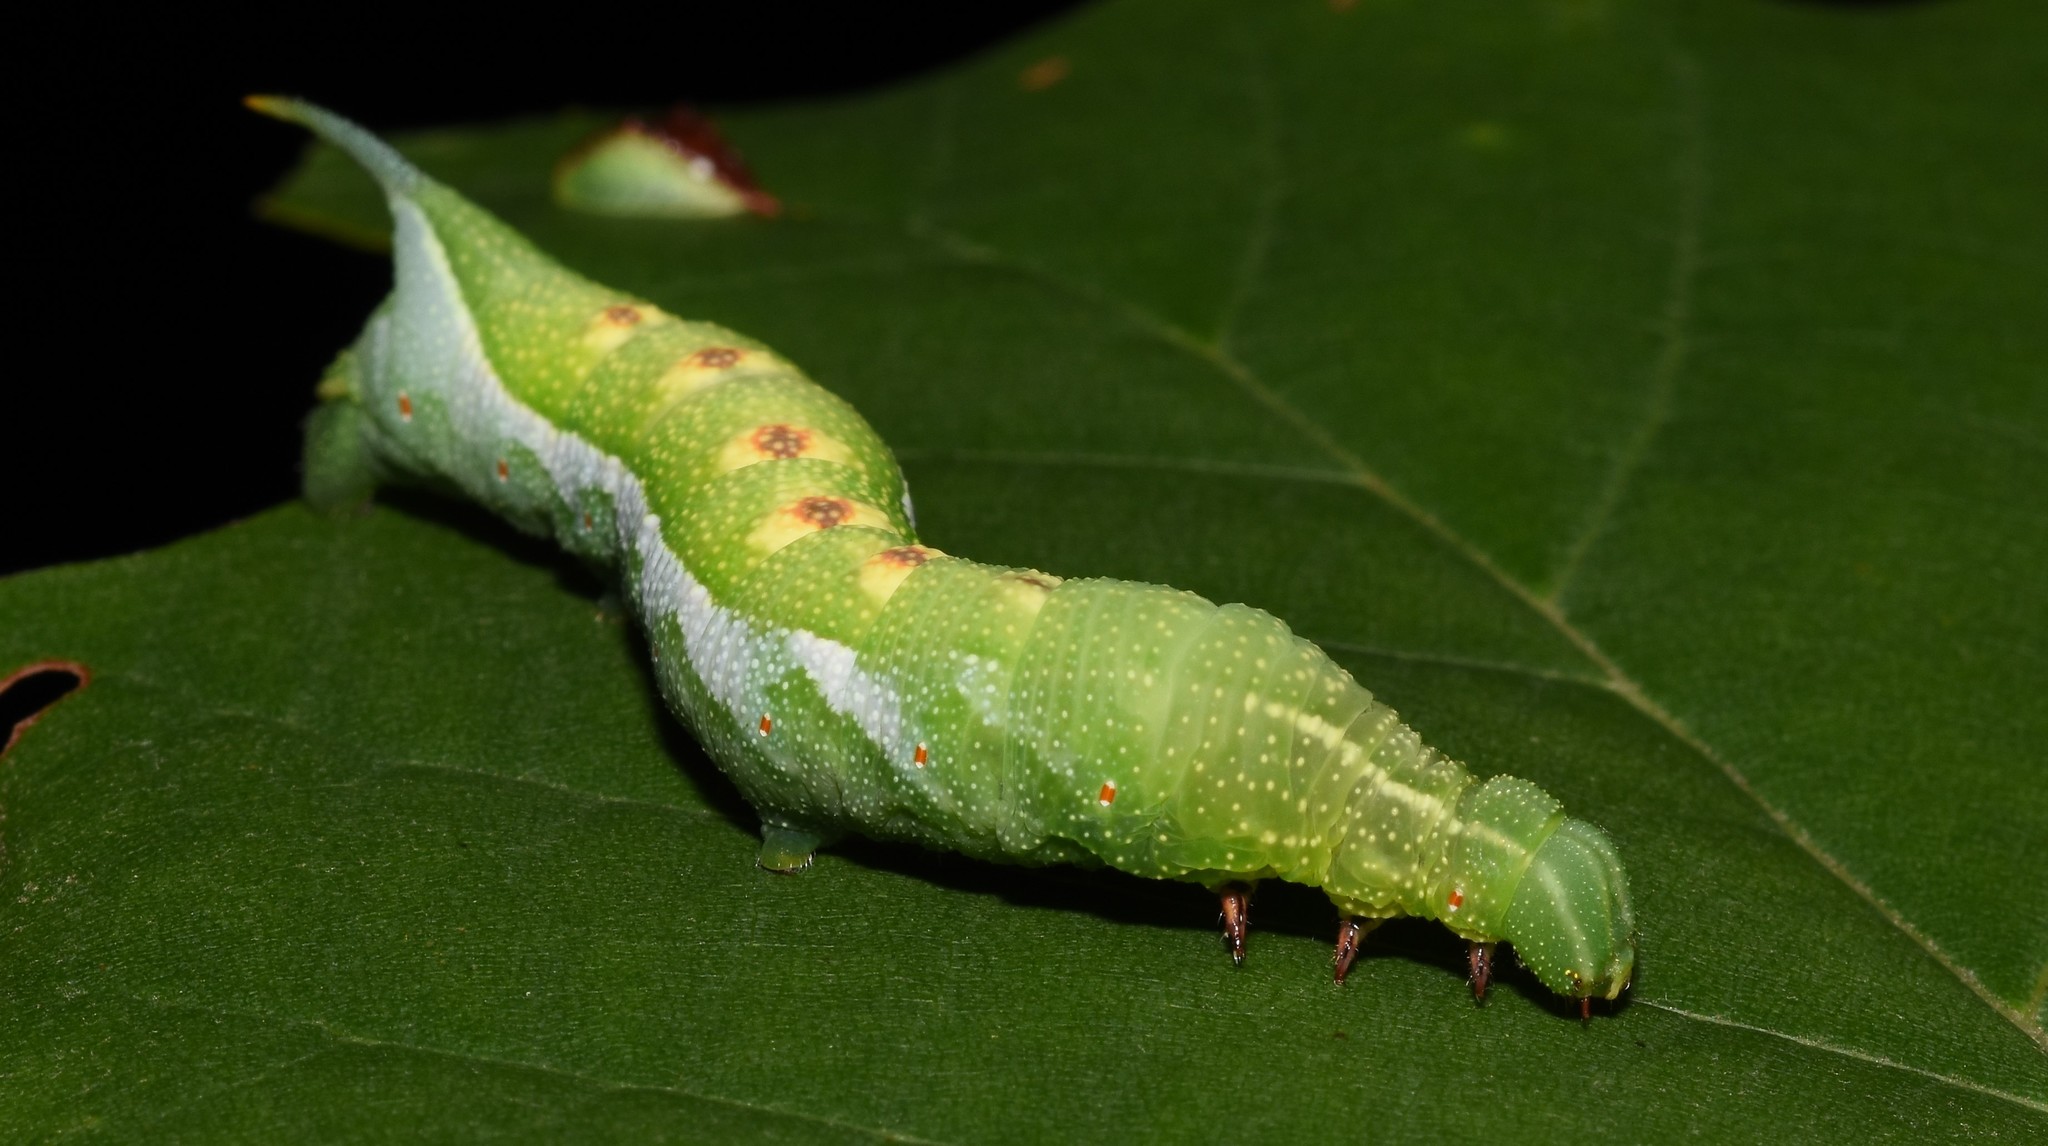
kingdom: Animalia
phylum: Arthropoda
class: Insecta
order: Lepidoptera
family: Sphingidae
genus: Darapsa
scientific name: Darapsa myron
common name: Hog sphinx
